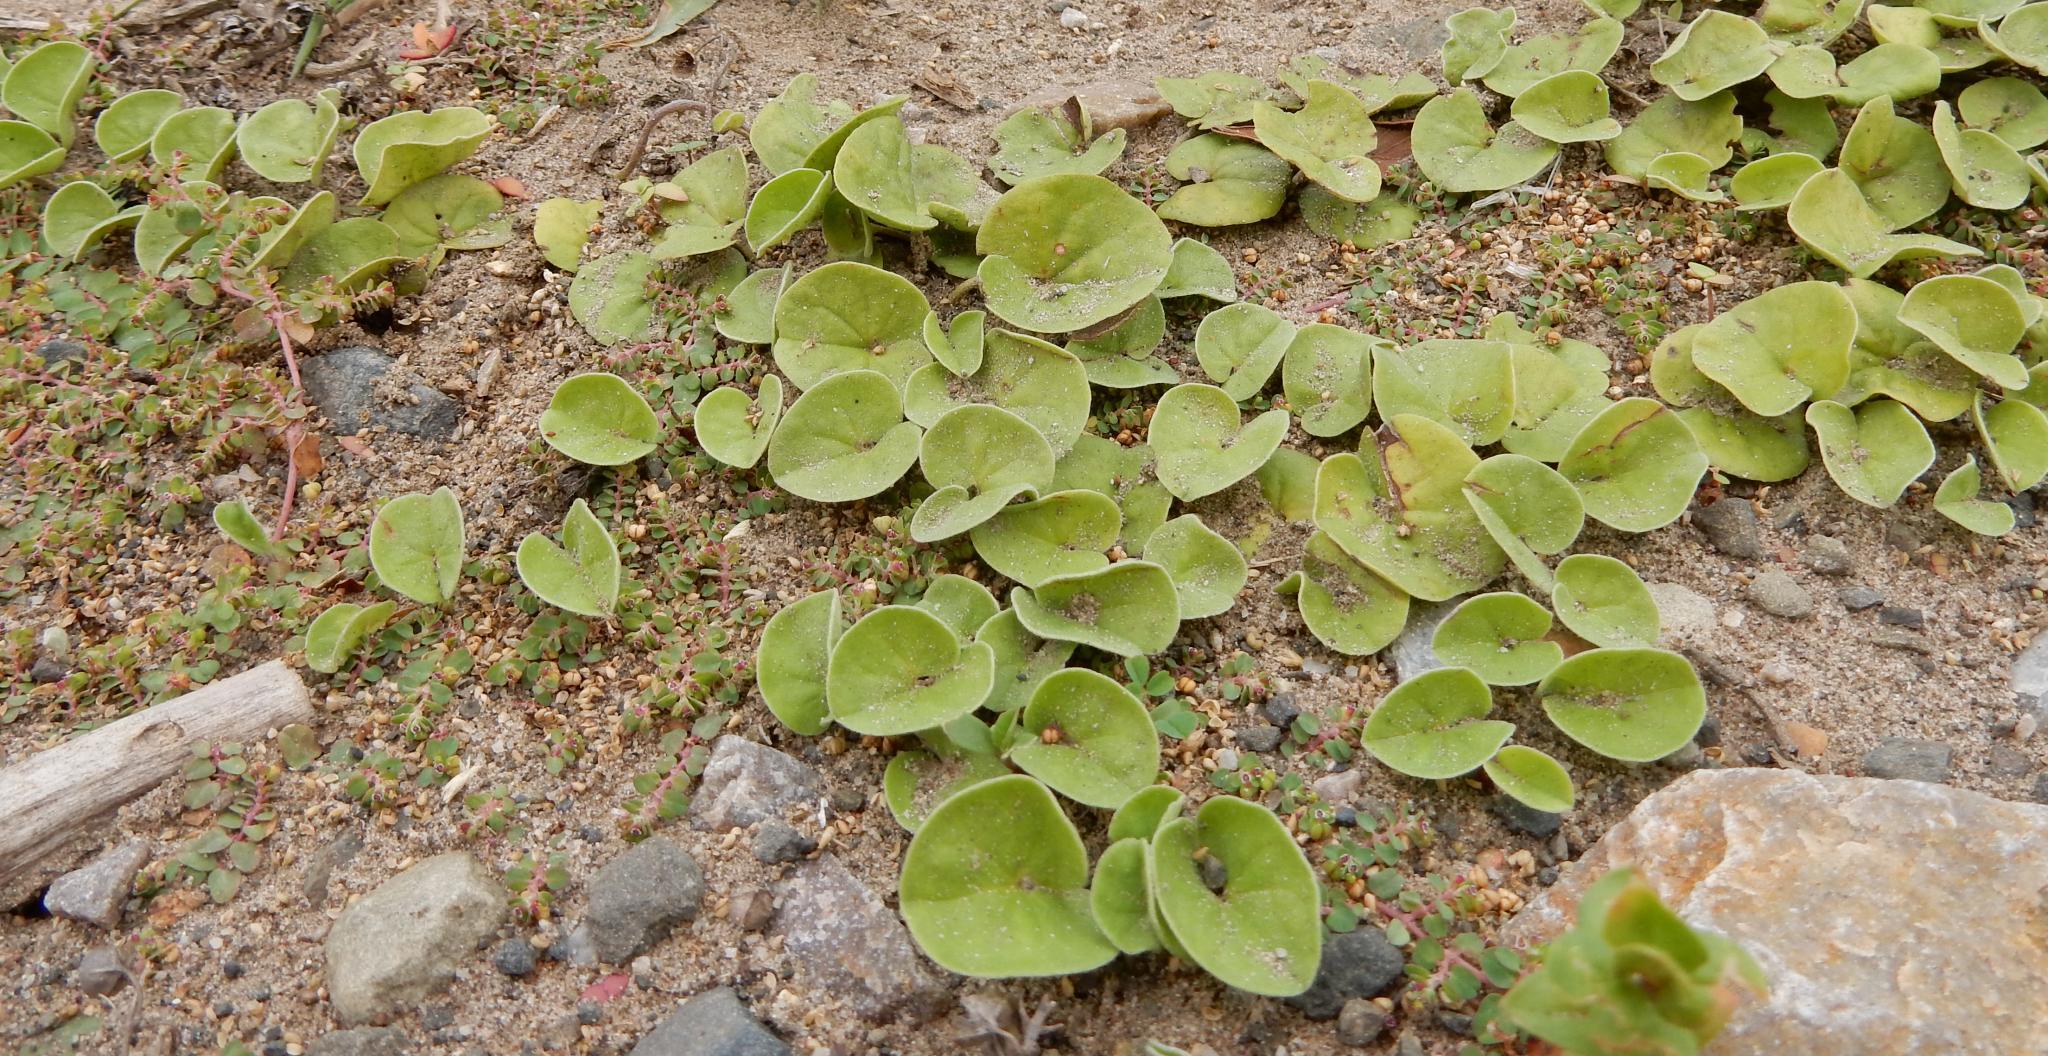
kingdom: Plantae
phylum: Tracheophyta
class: Magnoliopsida
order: Solanales
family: Convolvulaceae
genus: Dichondra
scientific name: Dichondra micrantha
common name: Kidneyweed
